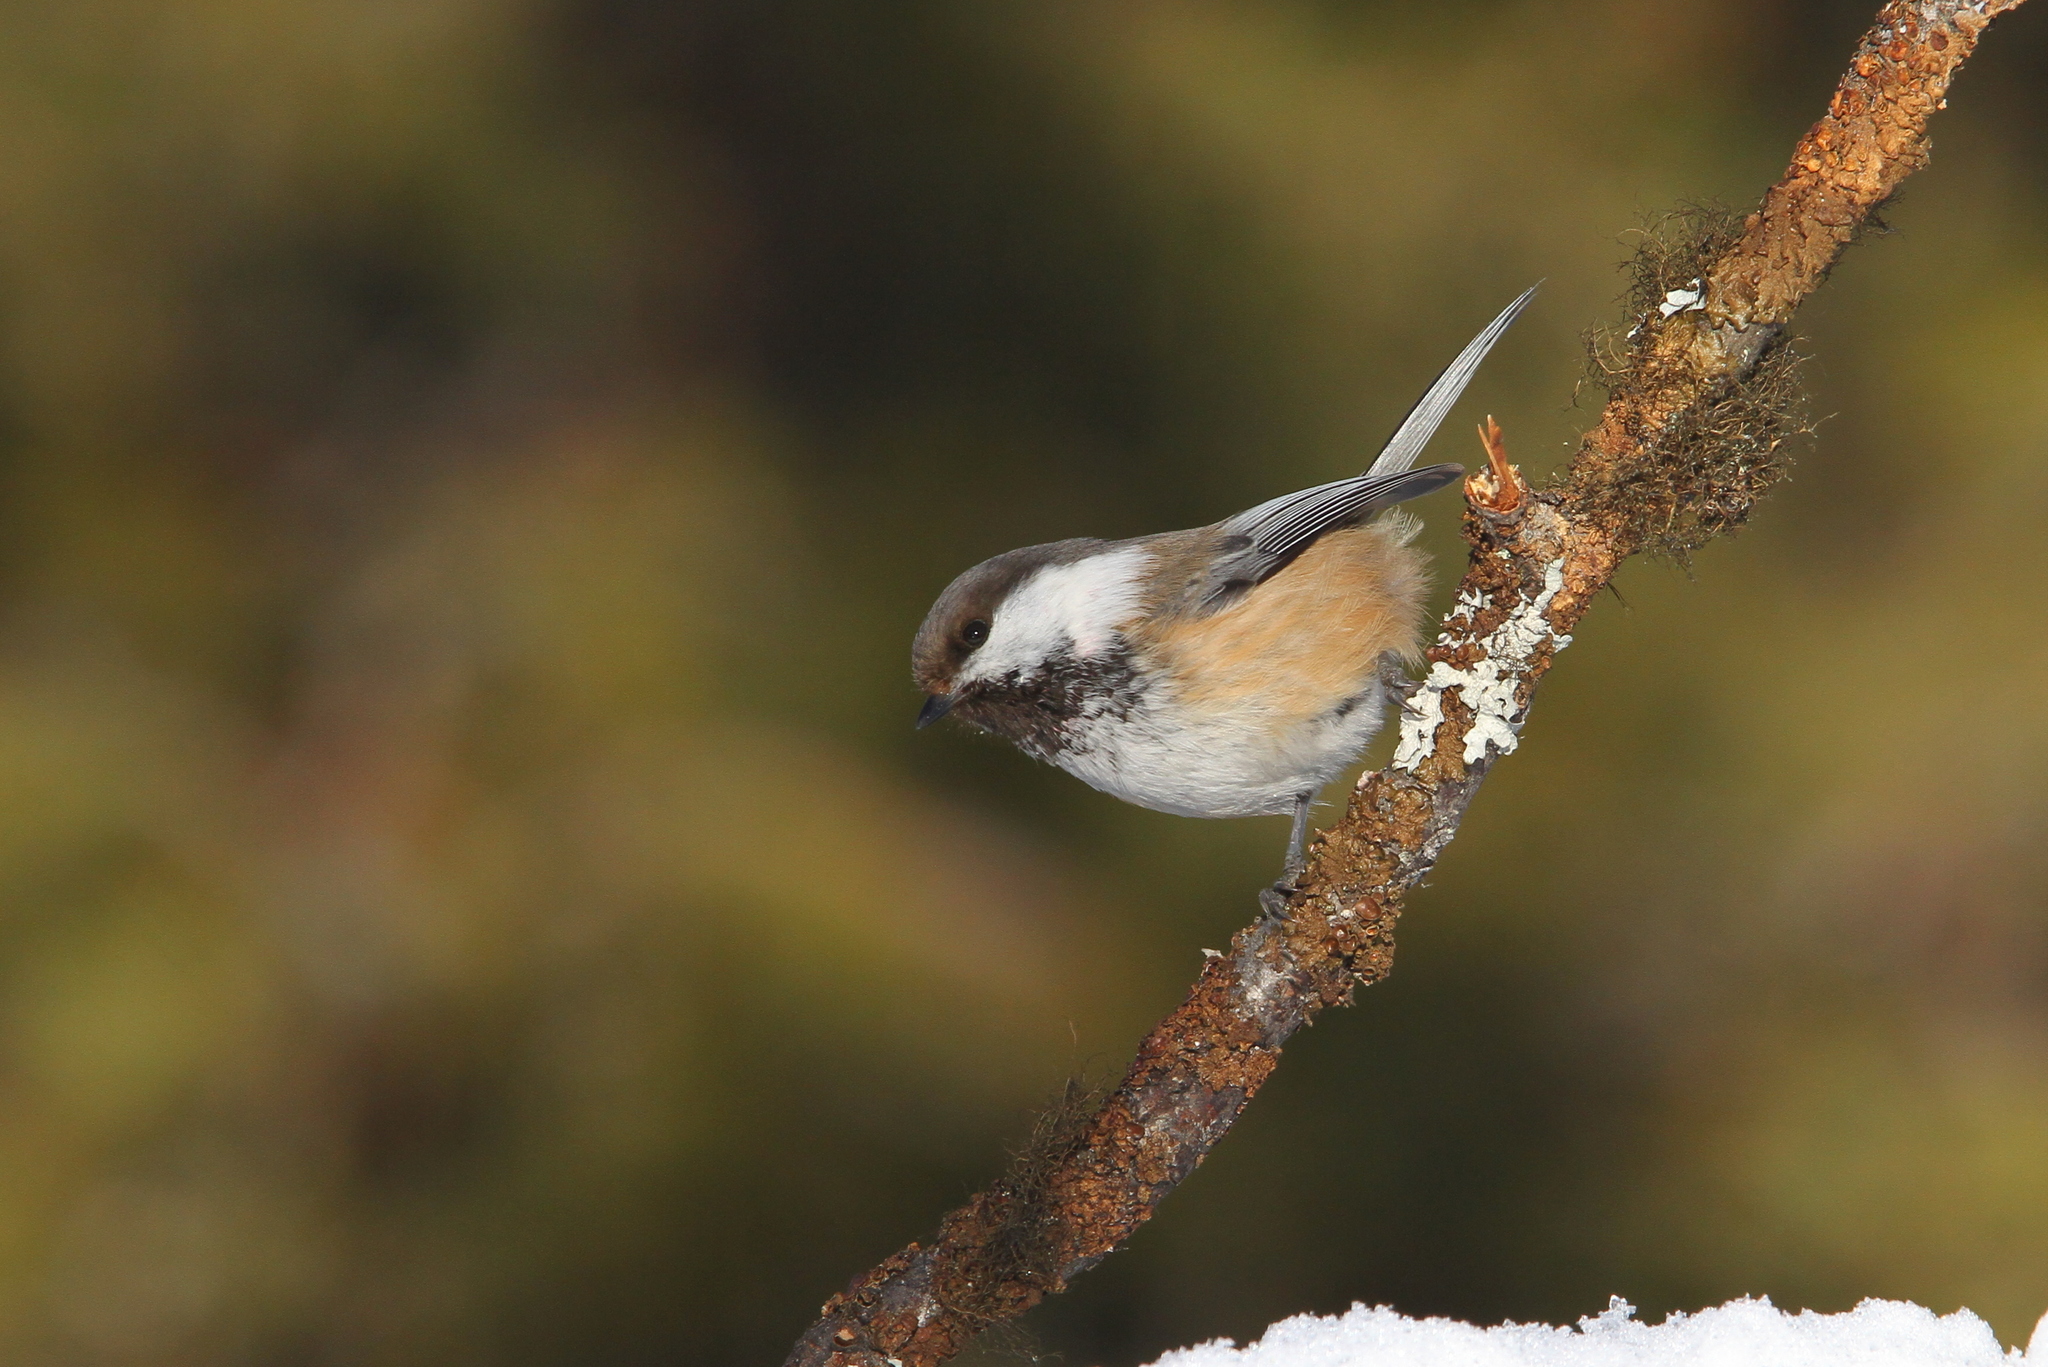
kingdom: Animalia
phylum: Chordata
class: Aves
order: Passeriformes
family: Paridae
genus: Poecile
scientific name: Poecile cinctus
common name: Gray-headed chickadee
